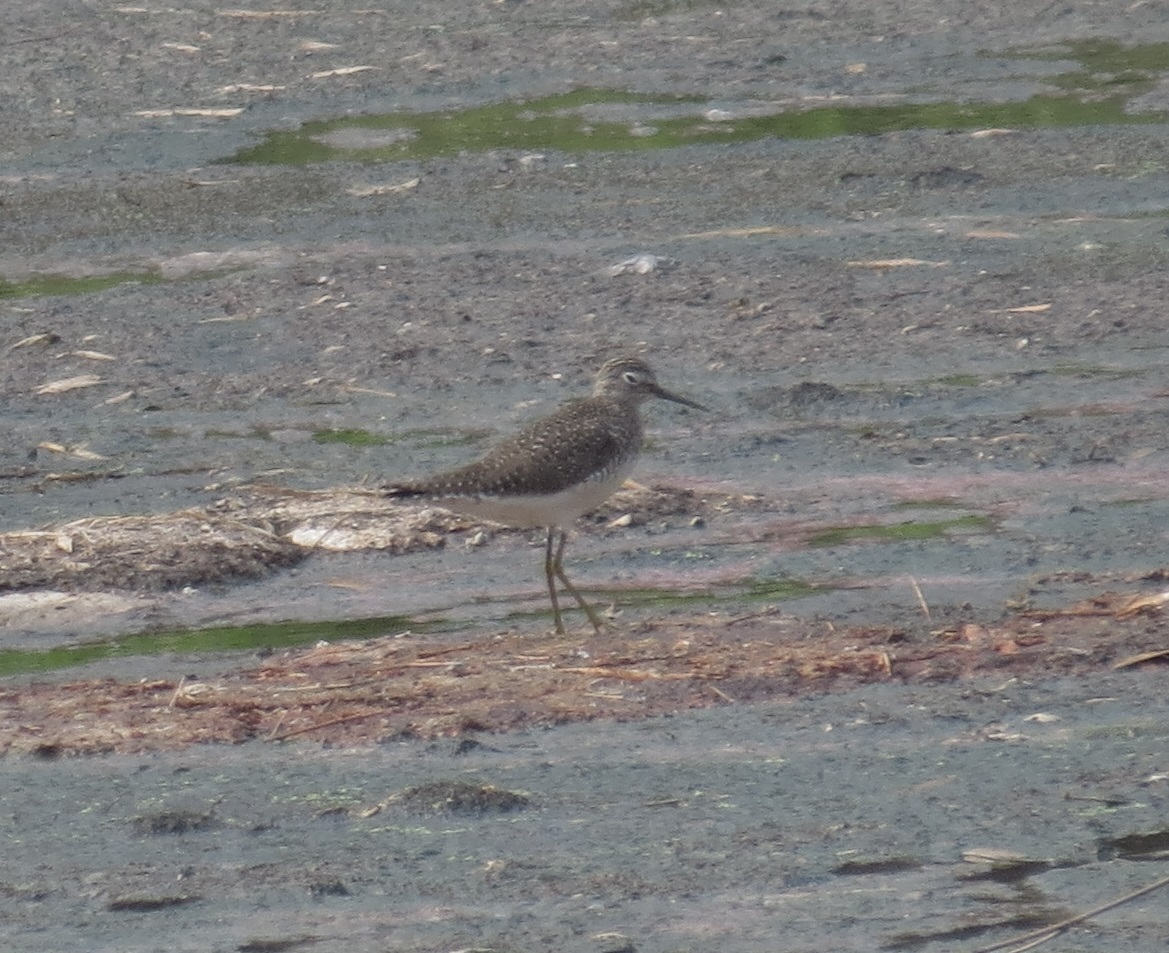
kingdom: Animalia
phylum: Chordata
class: Aves
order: Charadriiformes
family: Scolopacidae
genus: Tringa
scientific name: Tringa solitaria
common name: Solitary sandpiper
